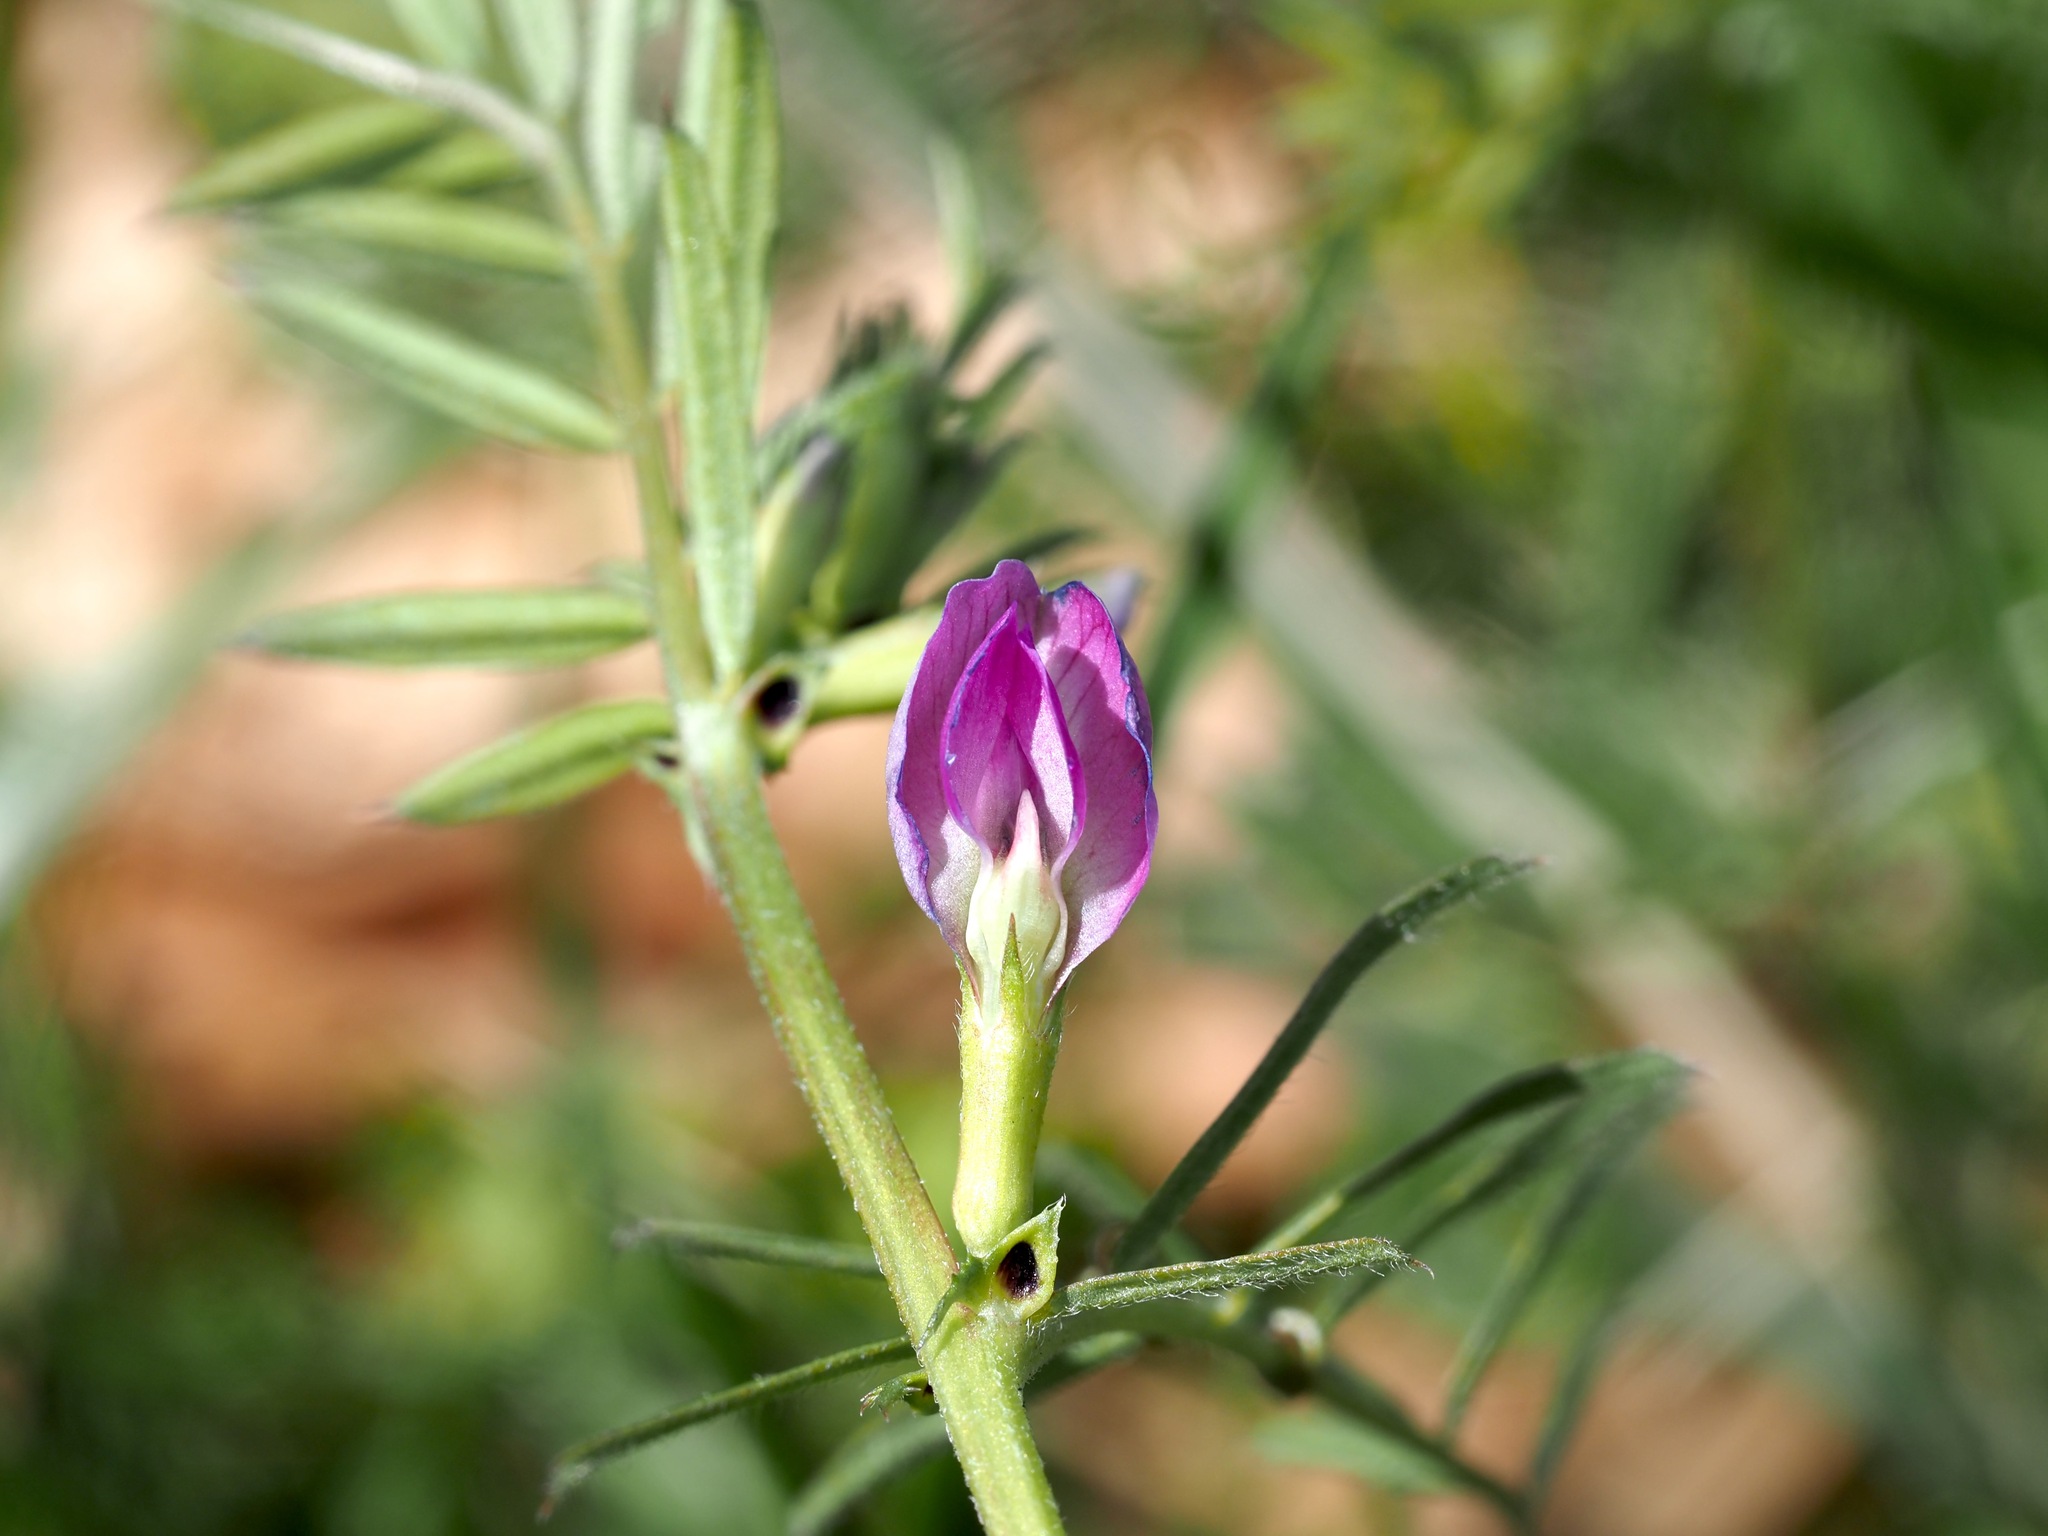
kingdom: Plantae
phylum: Tracheophyta
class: Magnoliopsida
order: Fabales
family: Fabaceae
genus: Vicia
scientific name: Vicia sativa
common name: Garden vetch
